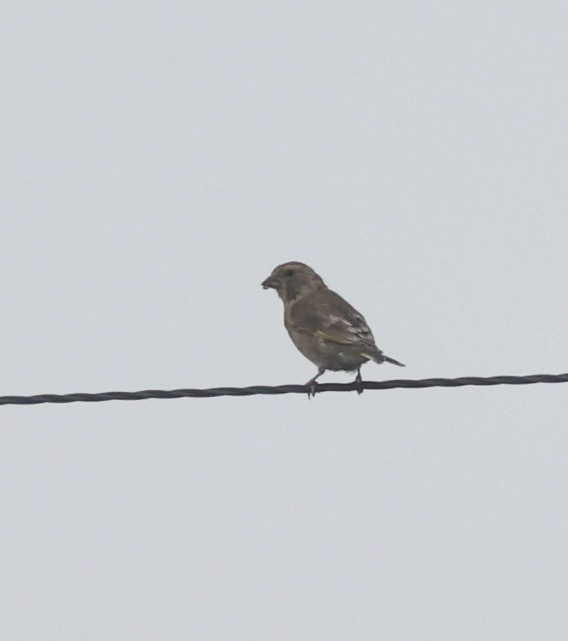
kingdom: Plantae
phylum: Tracheophyta
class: Liliopsida
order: Poales
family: Poaceae
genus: Chloris
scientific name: Chloris chloris
